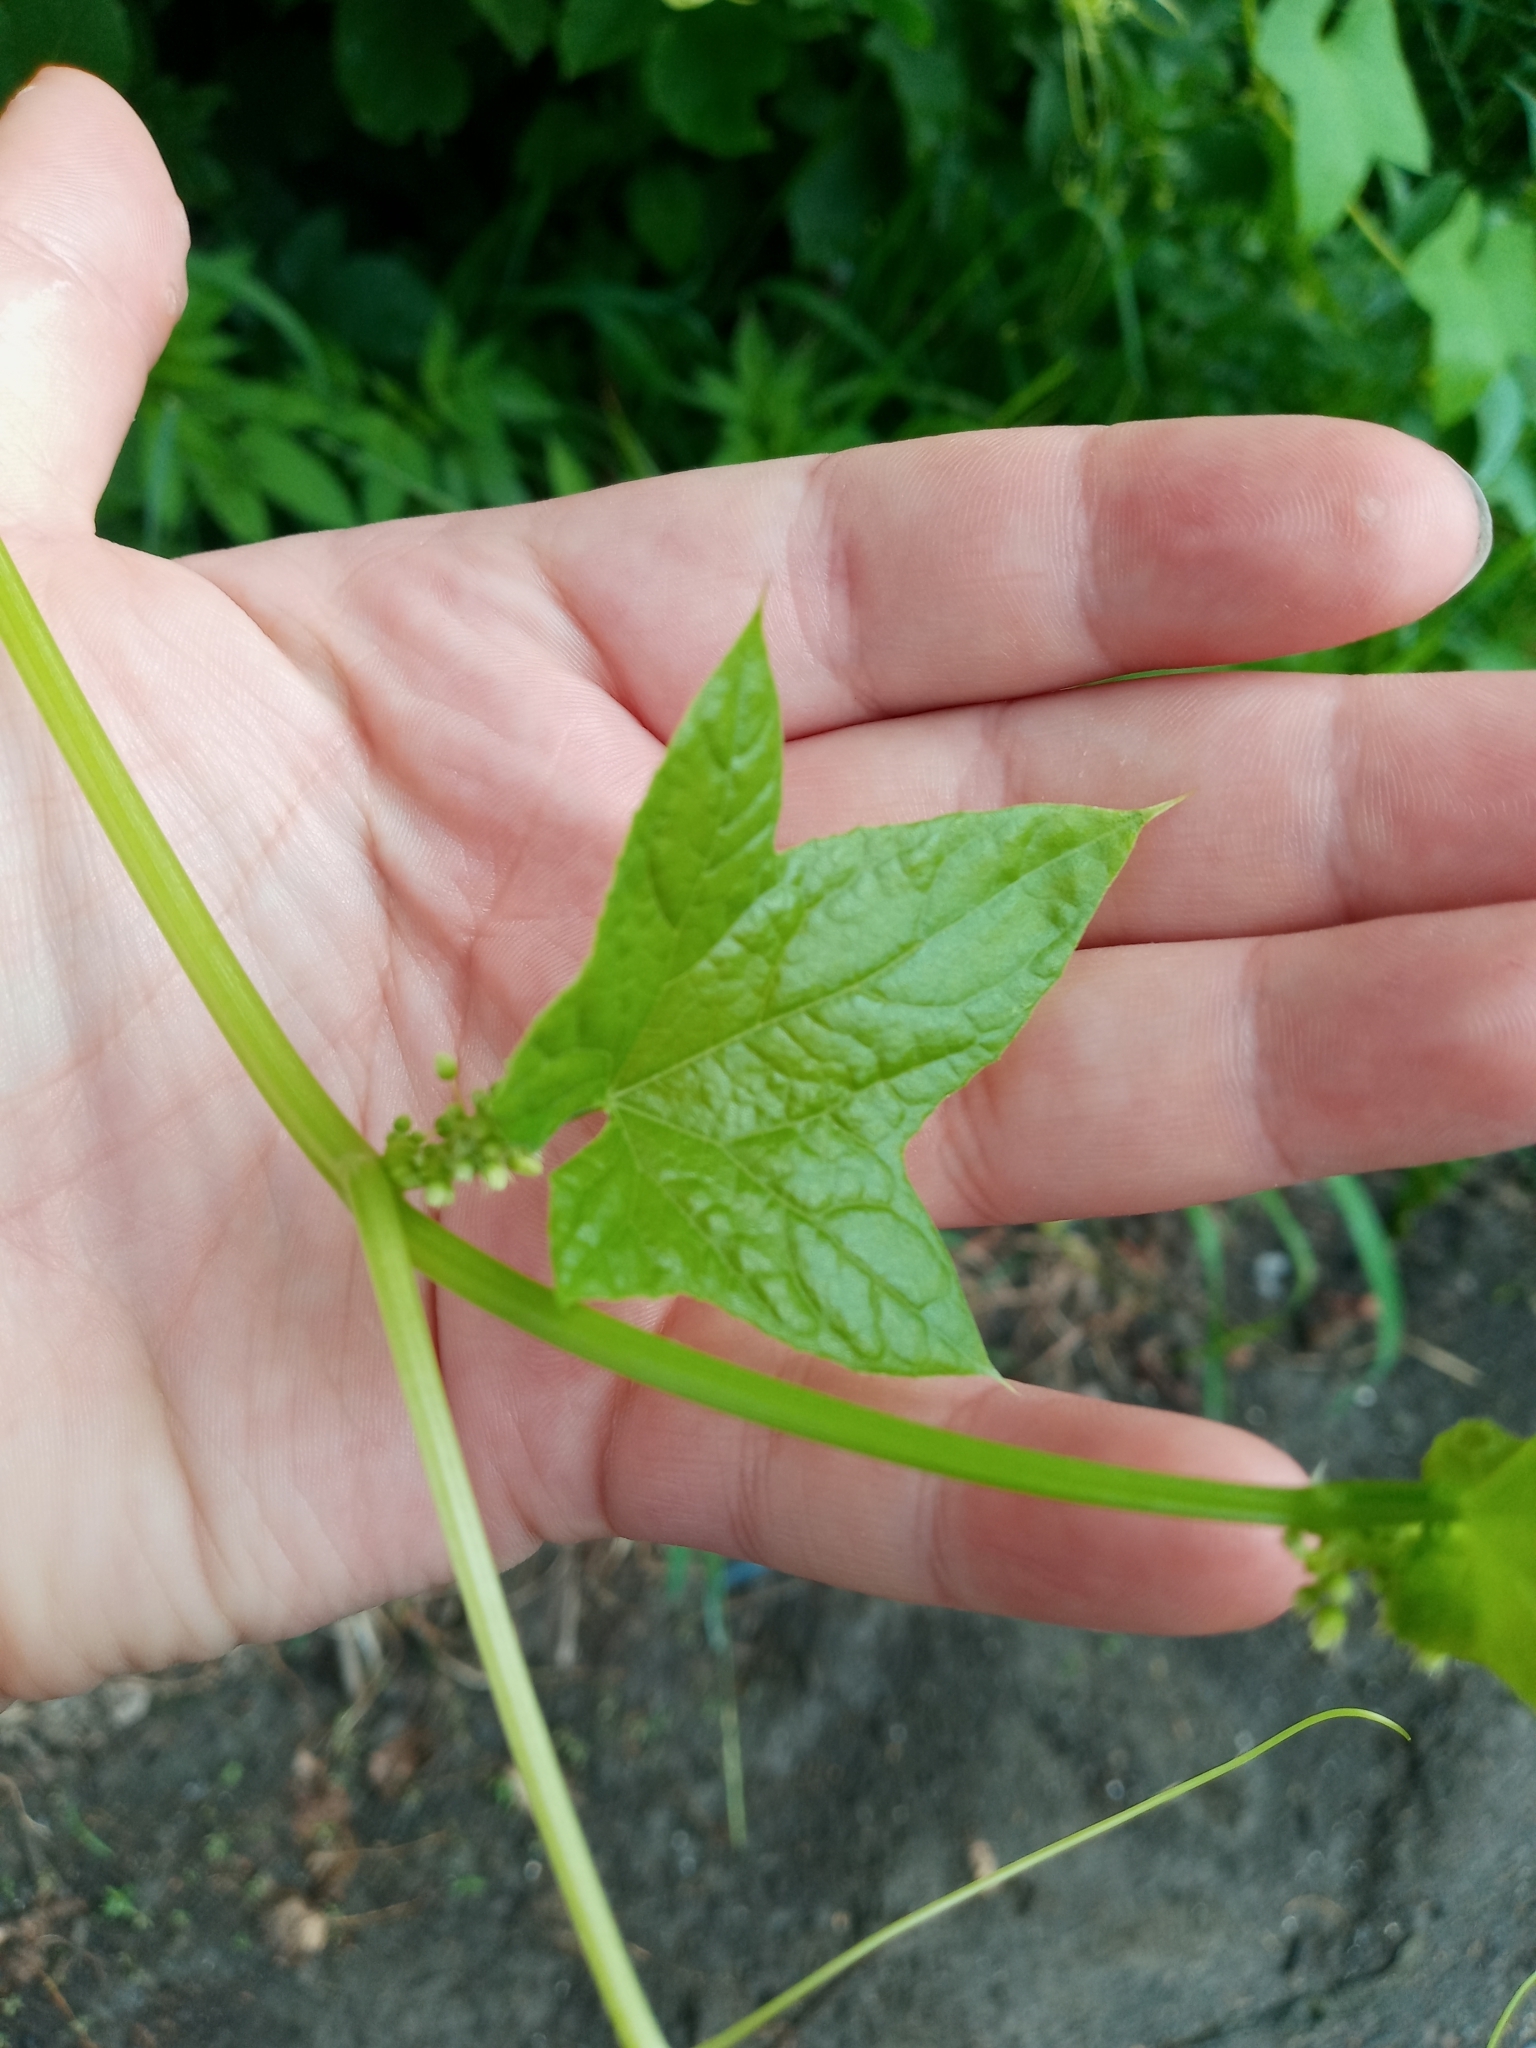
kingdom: Plantae
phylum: Tracheophyta
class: Magnoliopsida
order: Cucurbitales
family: Cucurbitaceae
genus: Echinocystis
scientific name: Echinocystis lobata
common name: Wild cucumber
